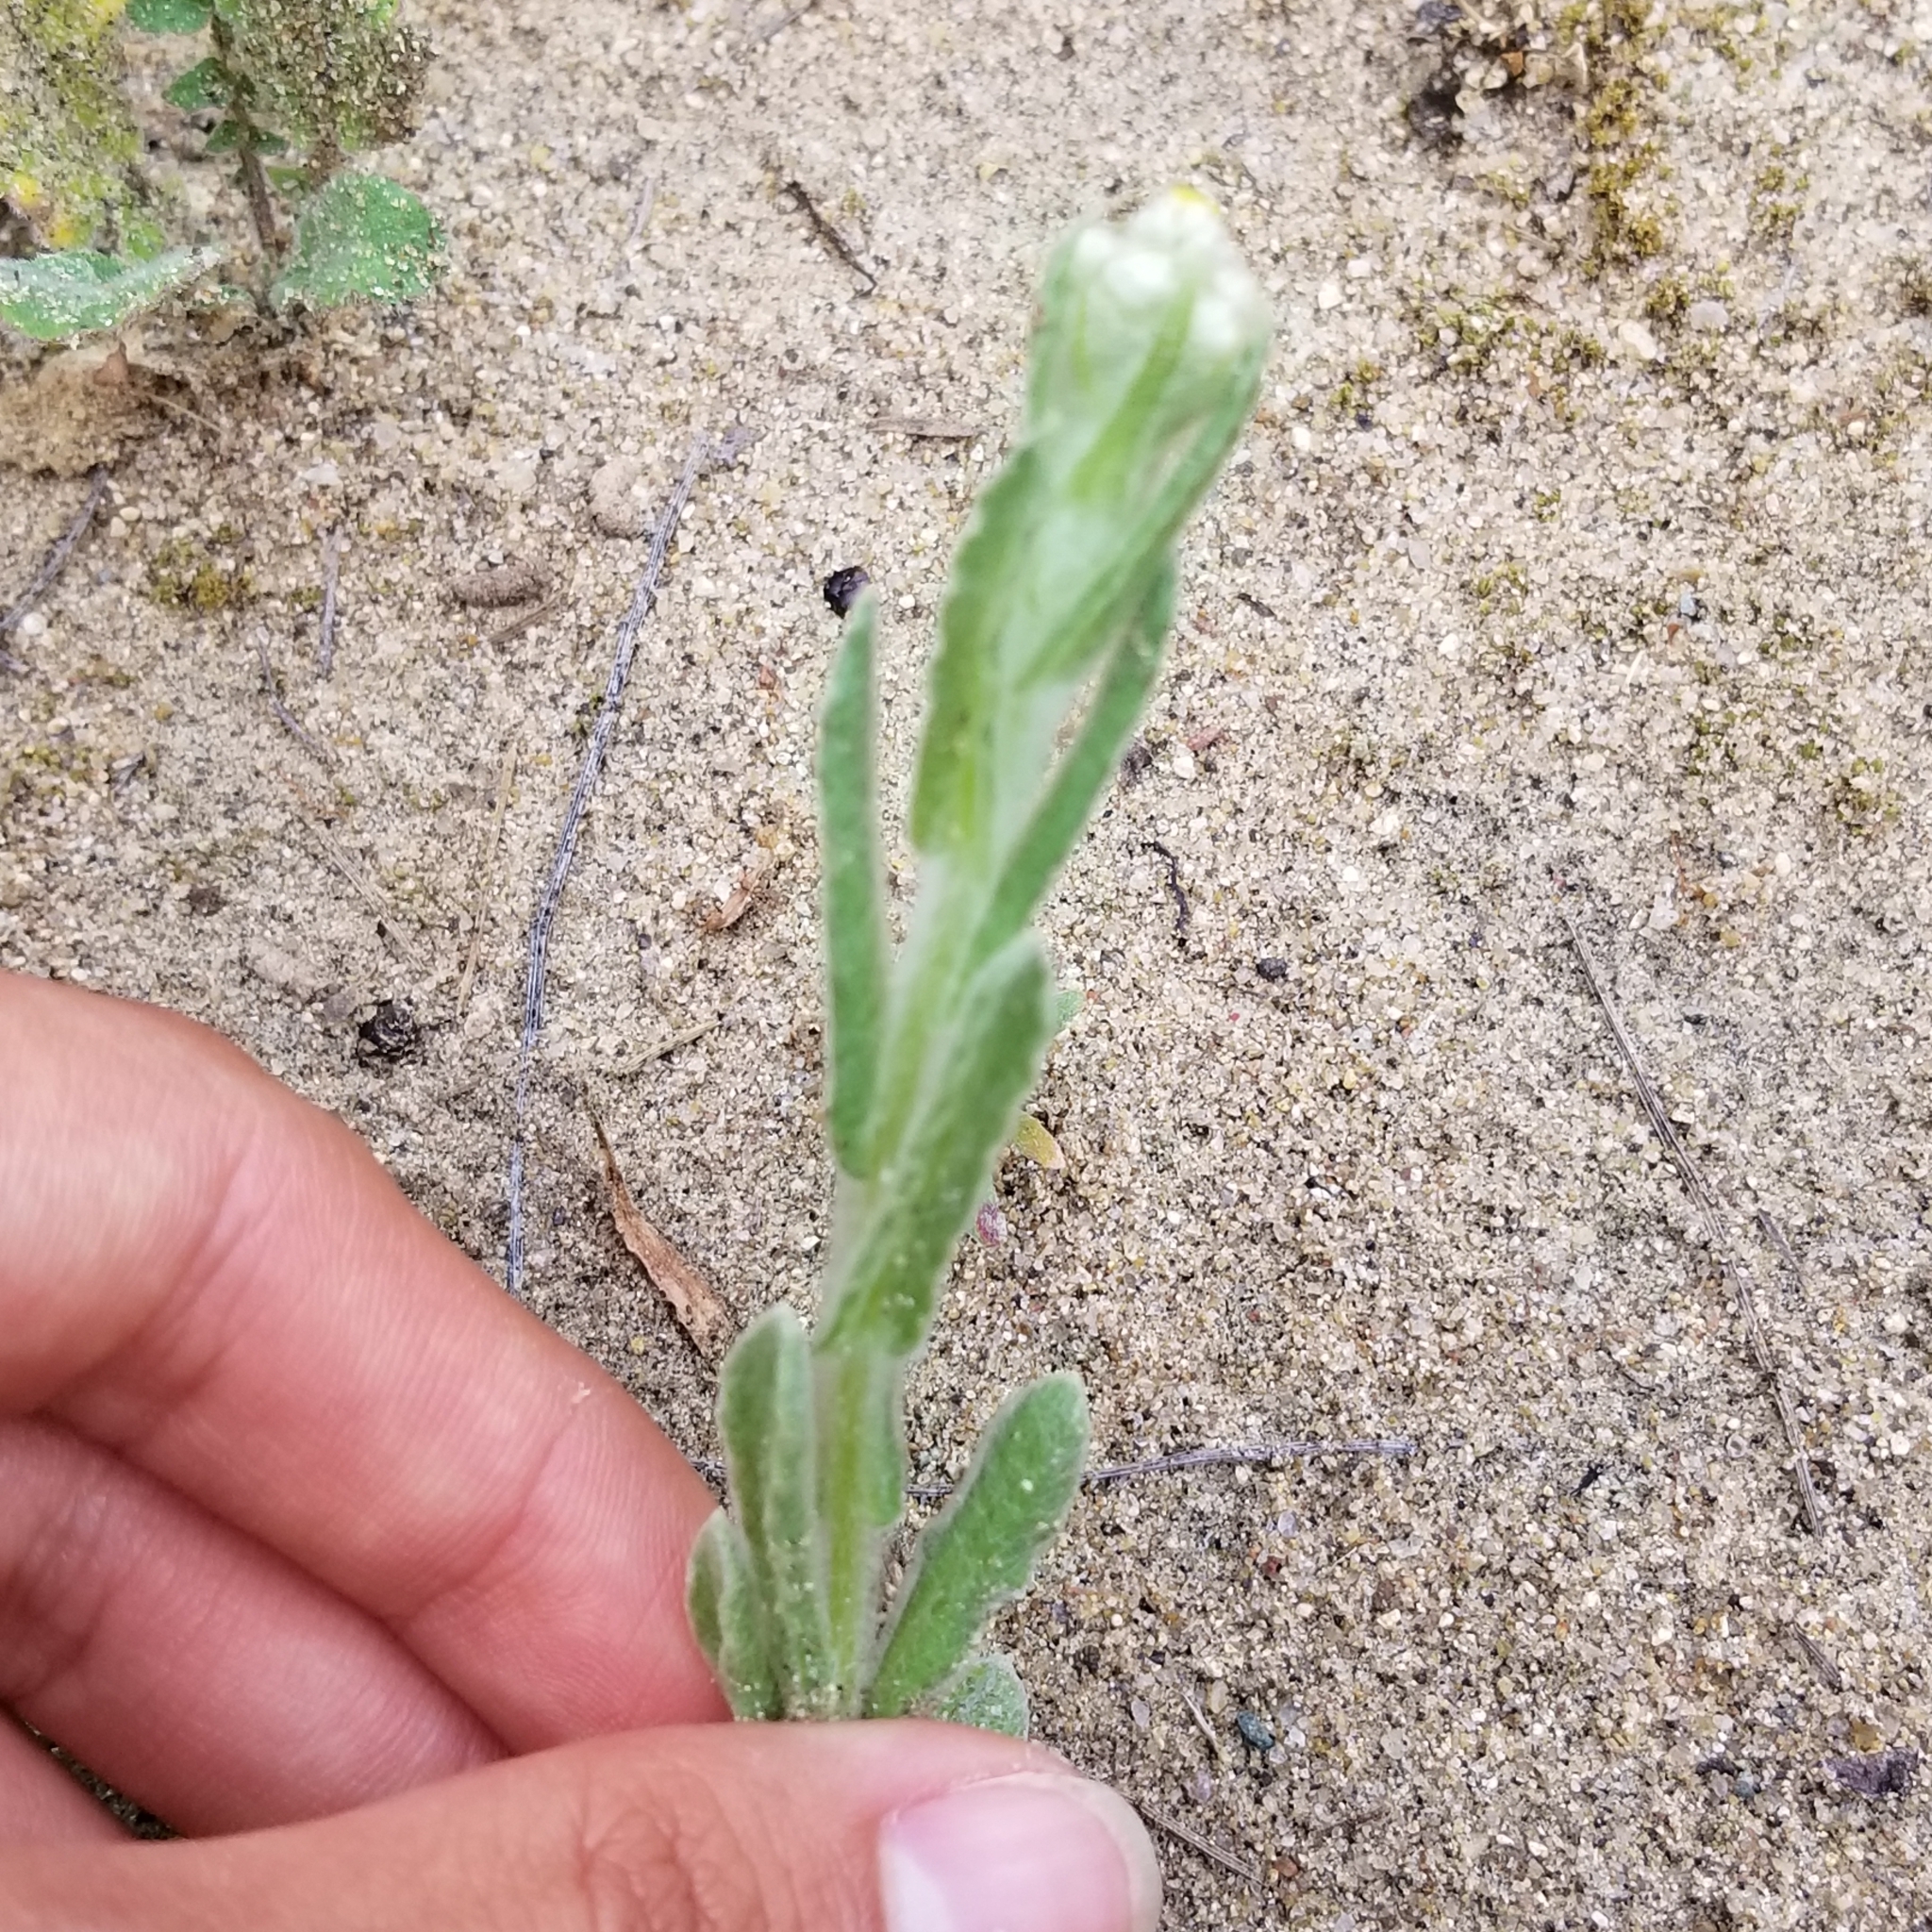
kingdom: Plantae
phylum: Tracheophyta
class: Magnoliopsida
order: Asterales
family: Asteraceae
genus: Pseudognaphalium
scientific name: Pseudognaphalium stramineum
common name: Cotton-batting-plant
